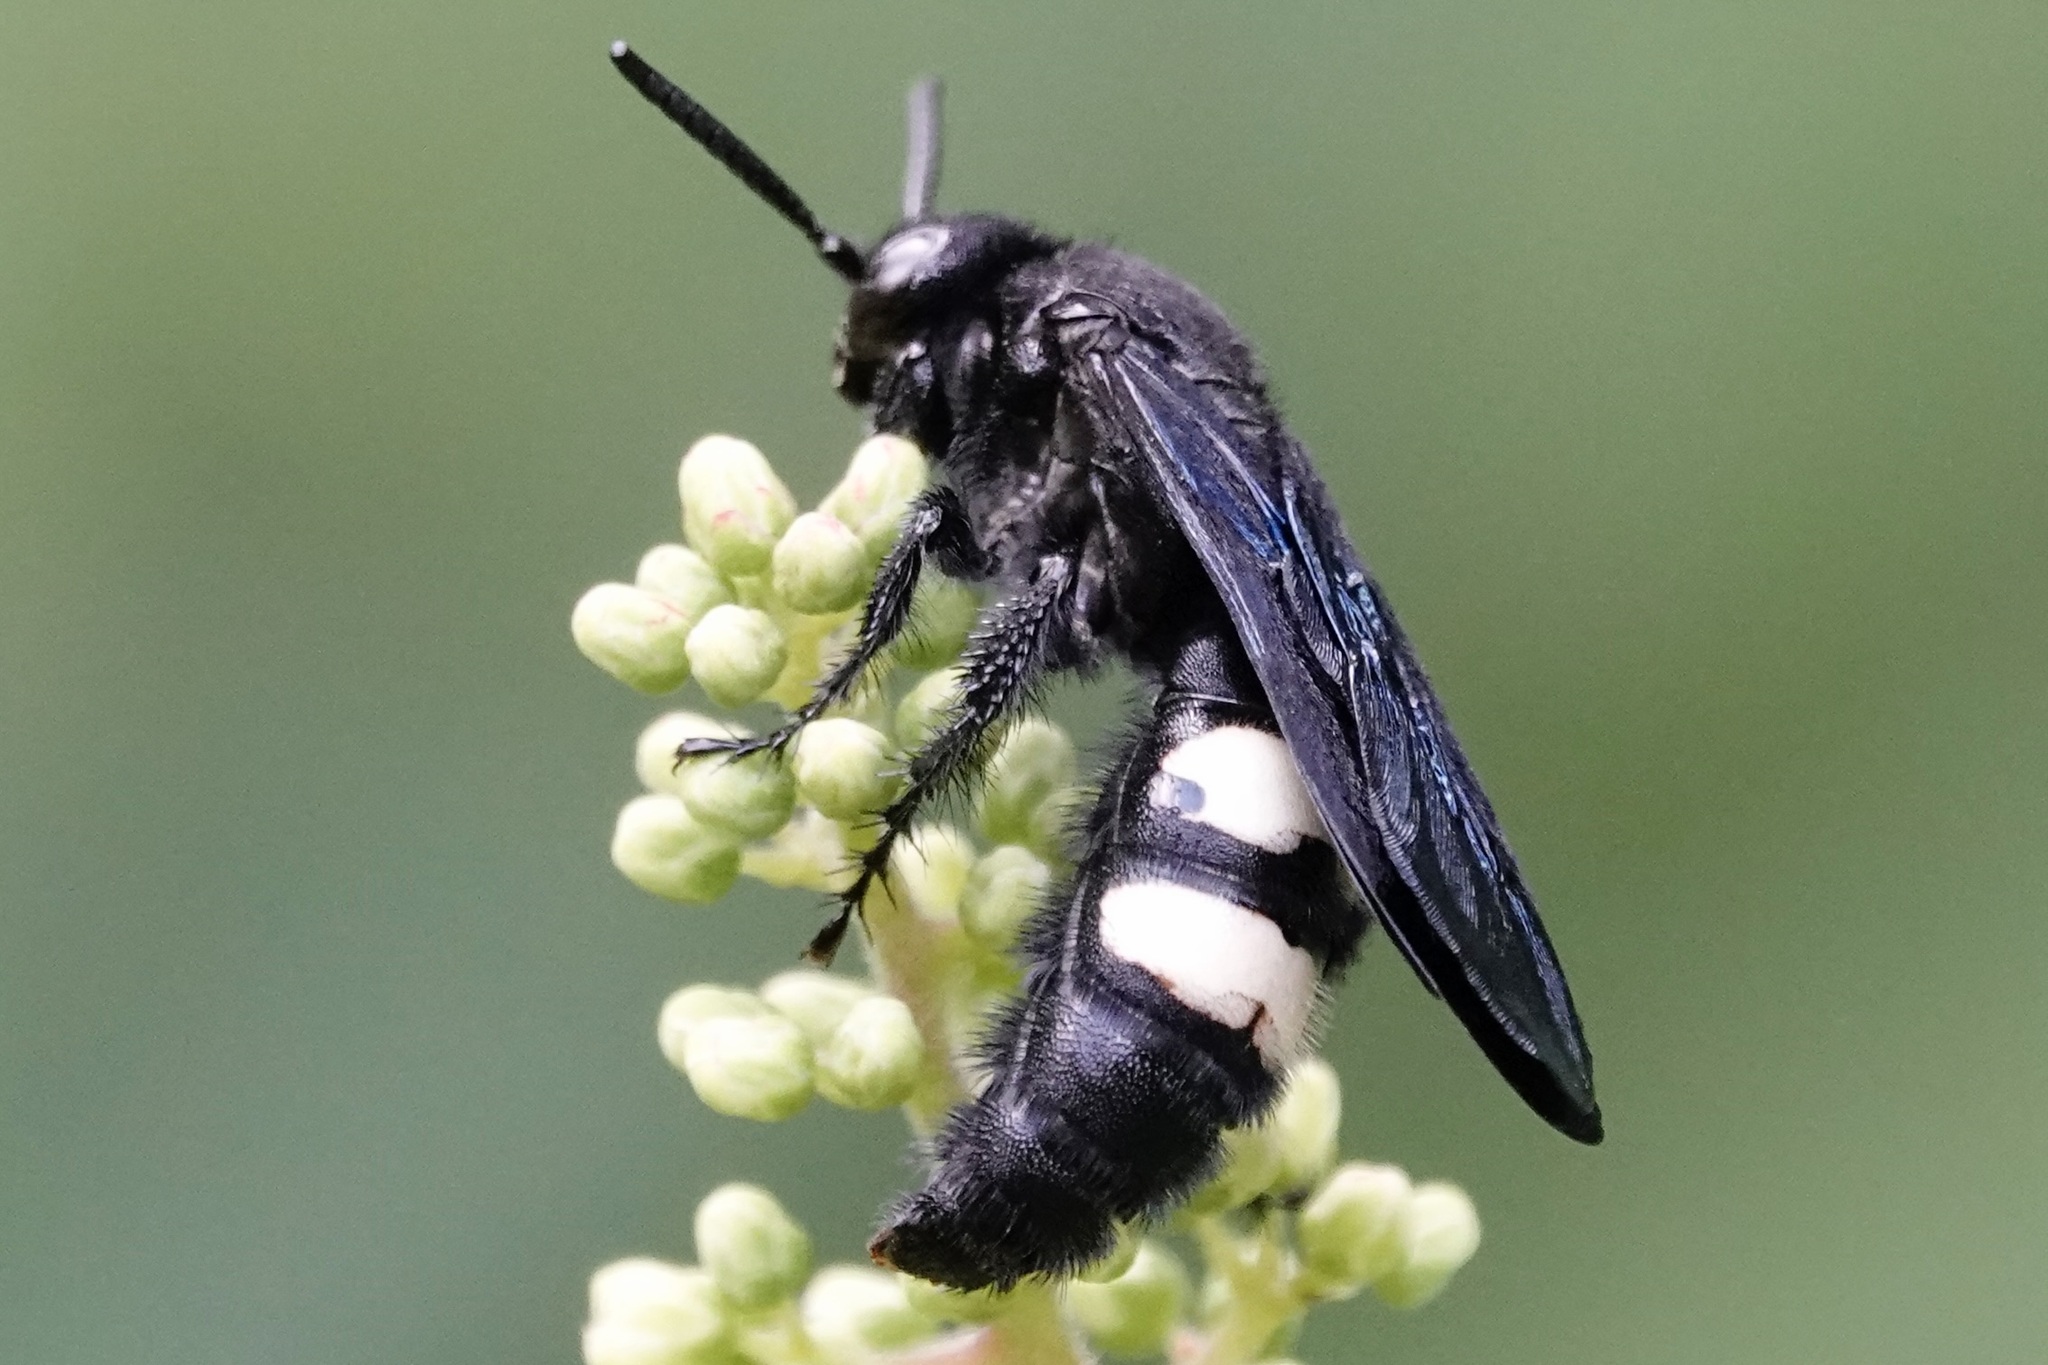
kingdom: Animalia
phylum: Arthropoda
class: Insecta
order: Hymenoptera
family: Scoliidae
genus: Scolia
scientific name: Scolia bicincta
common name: Double-banded scoliid wasp
